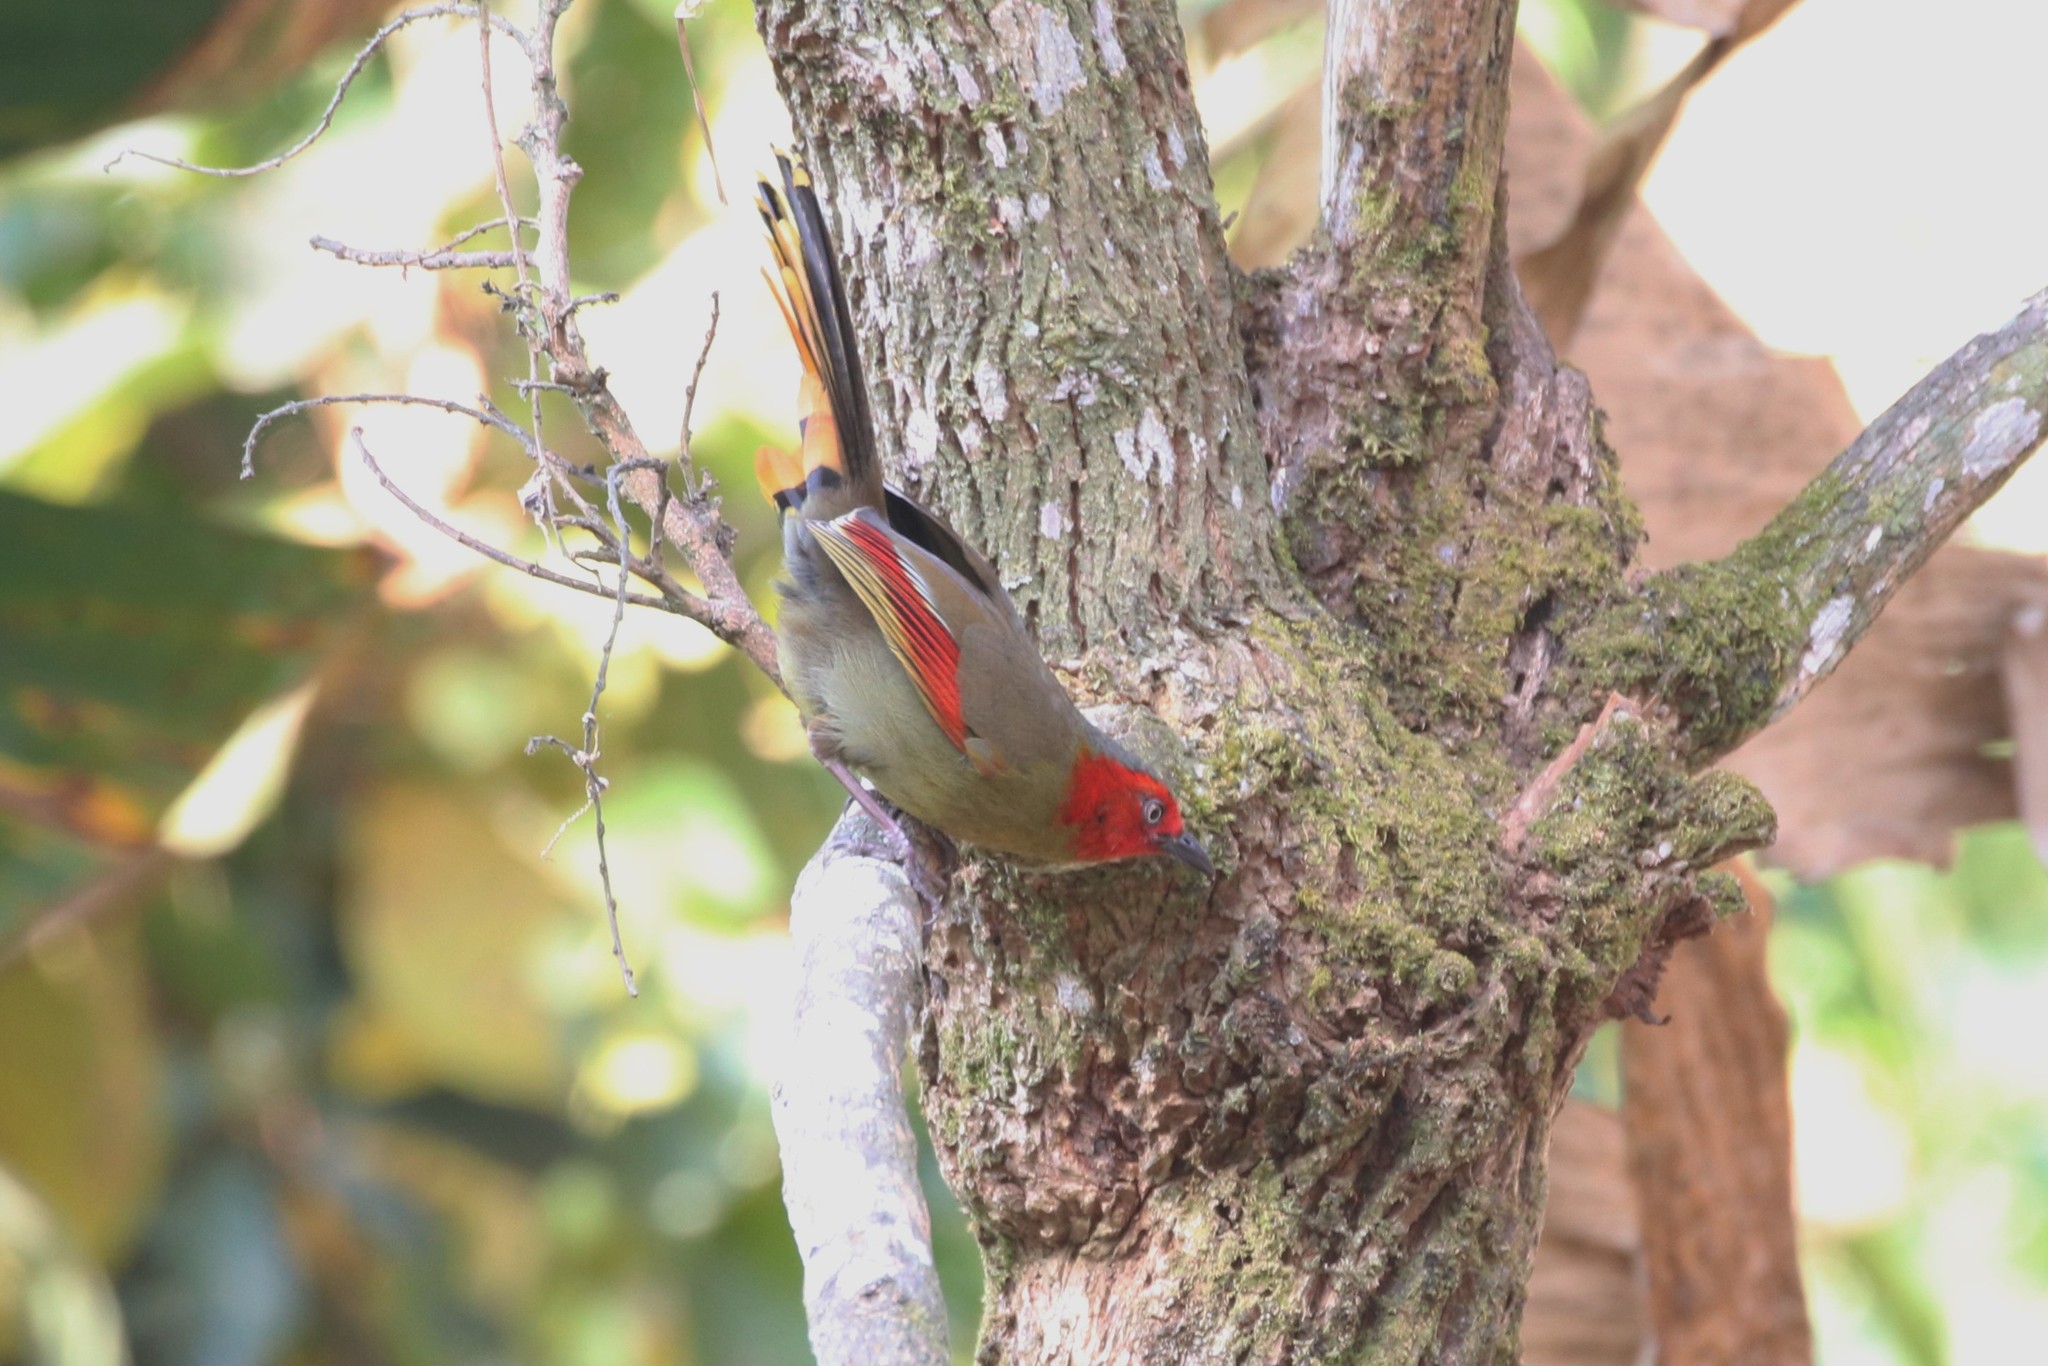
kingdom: Animalia
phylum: Chordata
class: Aves
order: Passeriformes
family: Leiothrichidae
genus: Liocichla
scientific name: Liocichla ripponi
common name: Scarlet-faced liocichla
